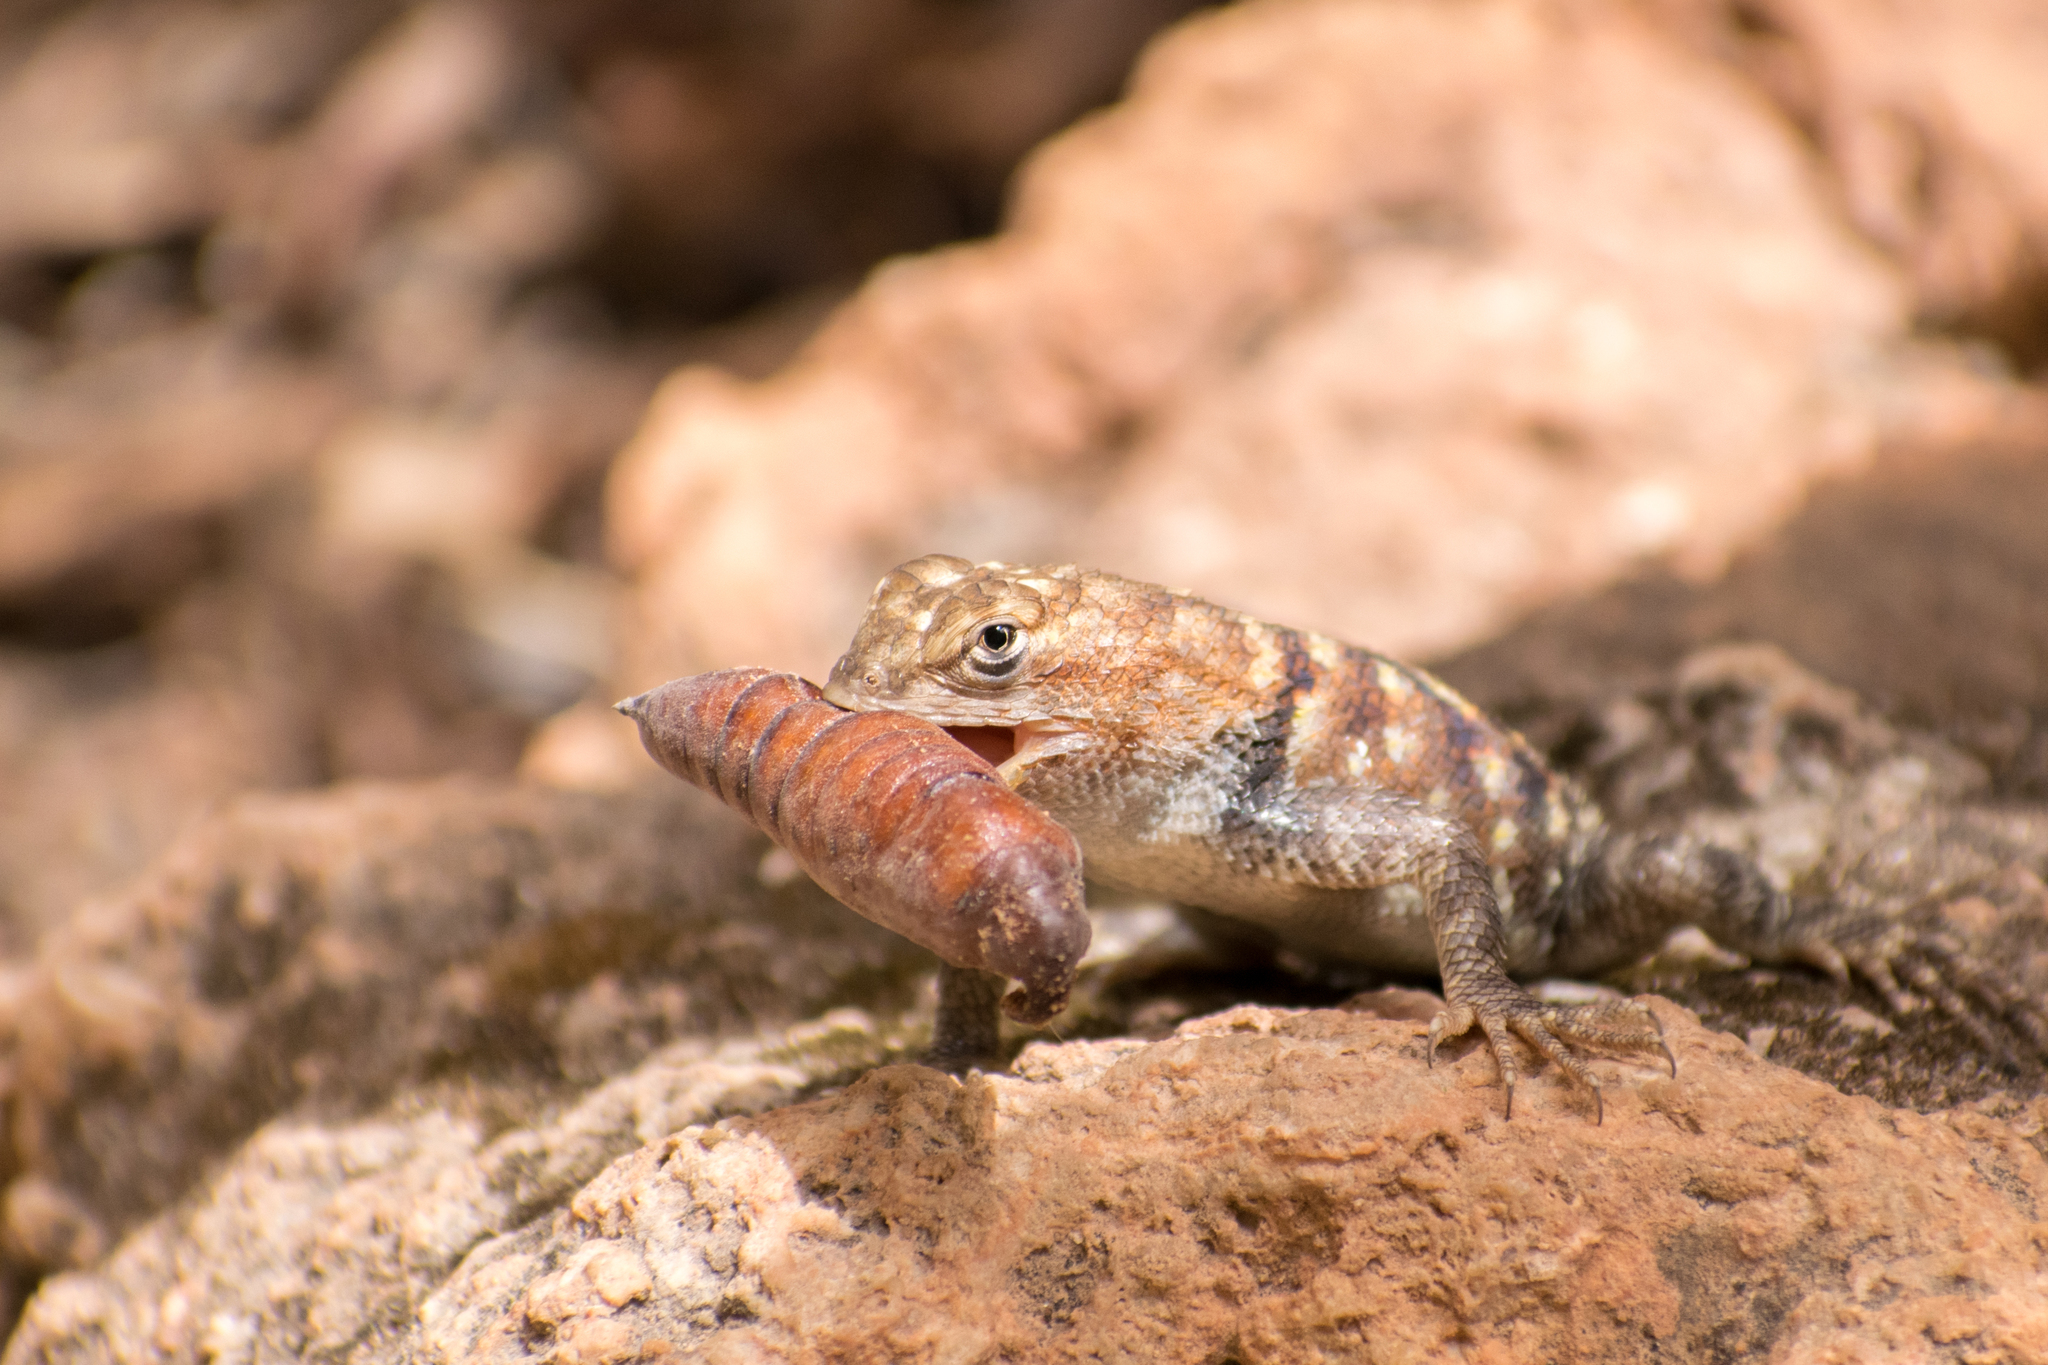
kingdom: Animalia
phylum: Chordata
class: Squamata
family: Phrynosomatidae
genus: Sceloporus
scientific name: Sceloporus magister
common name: Desert spiny lizard
